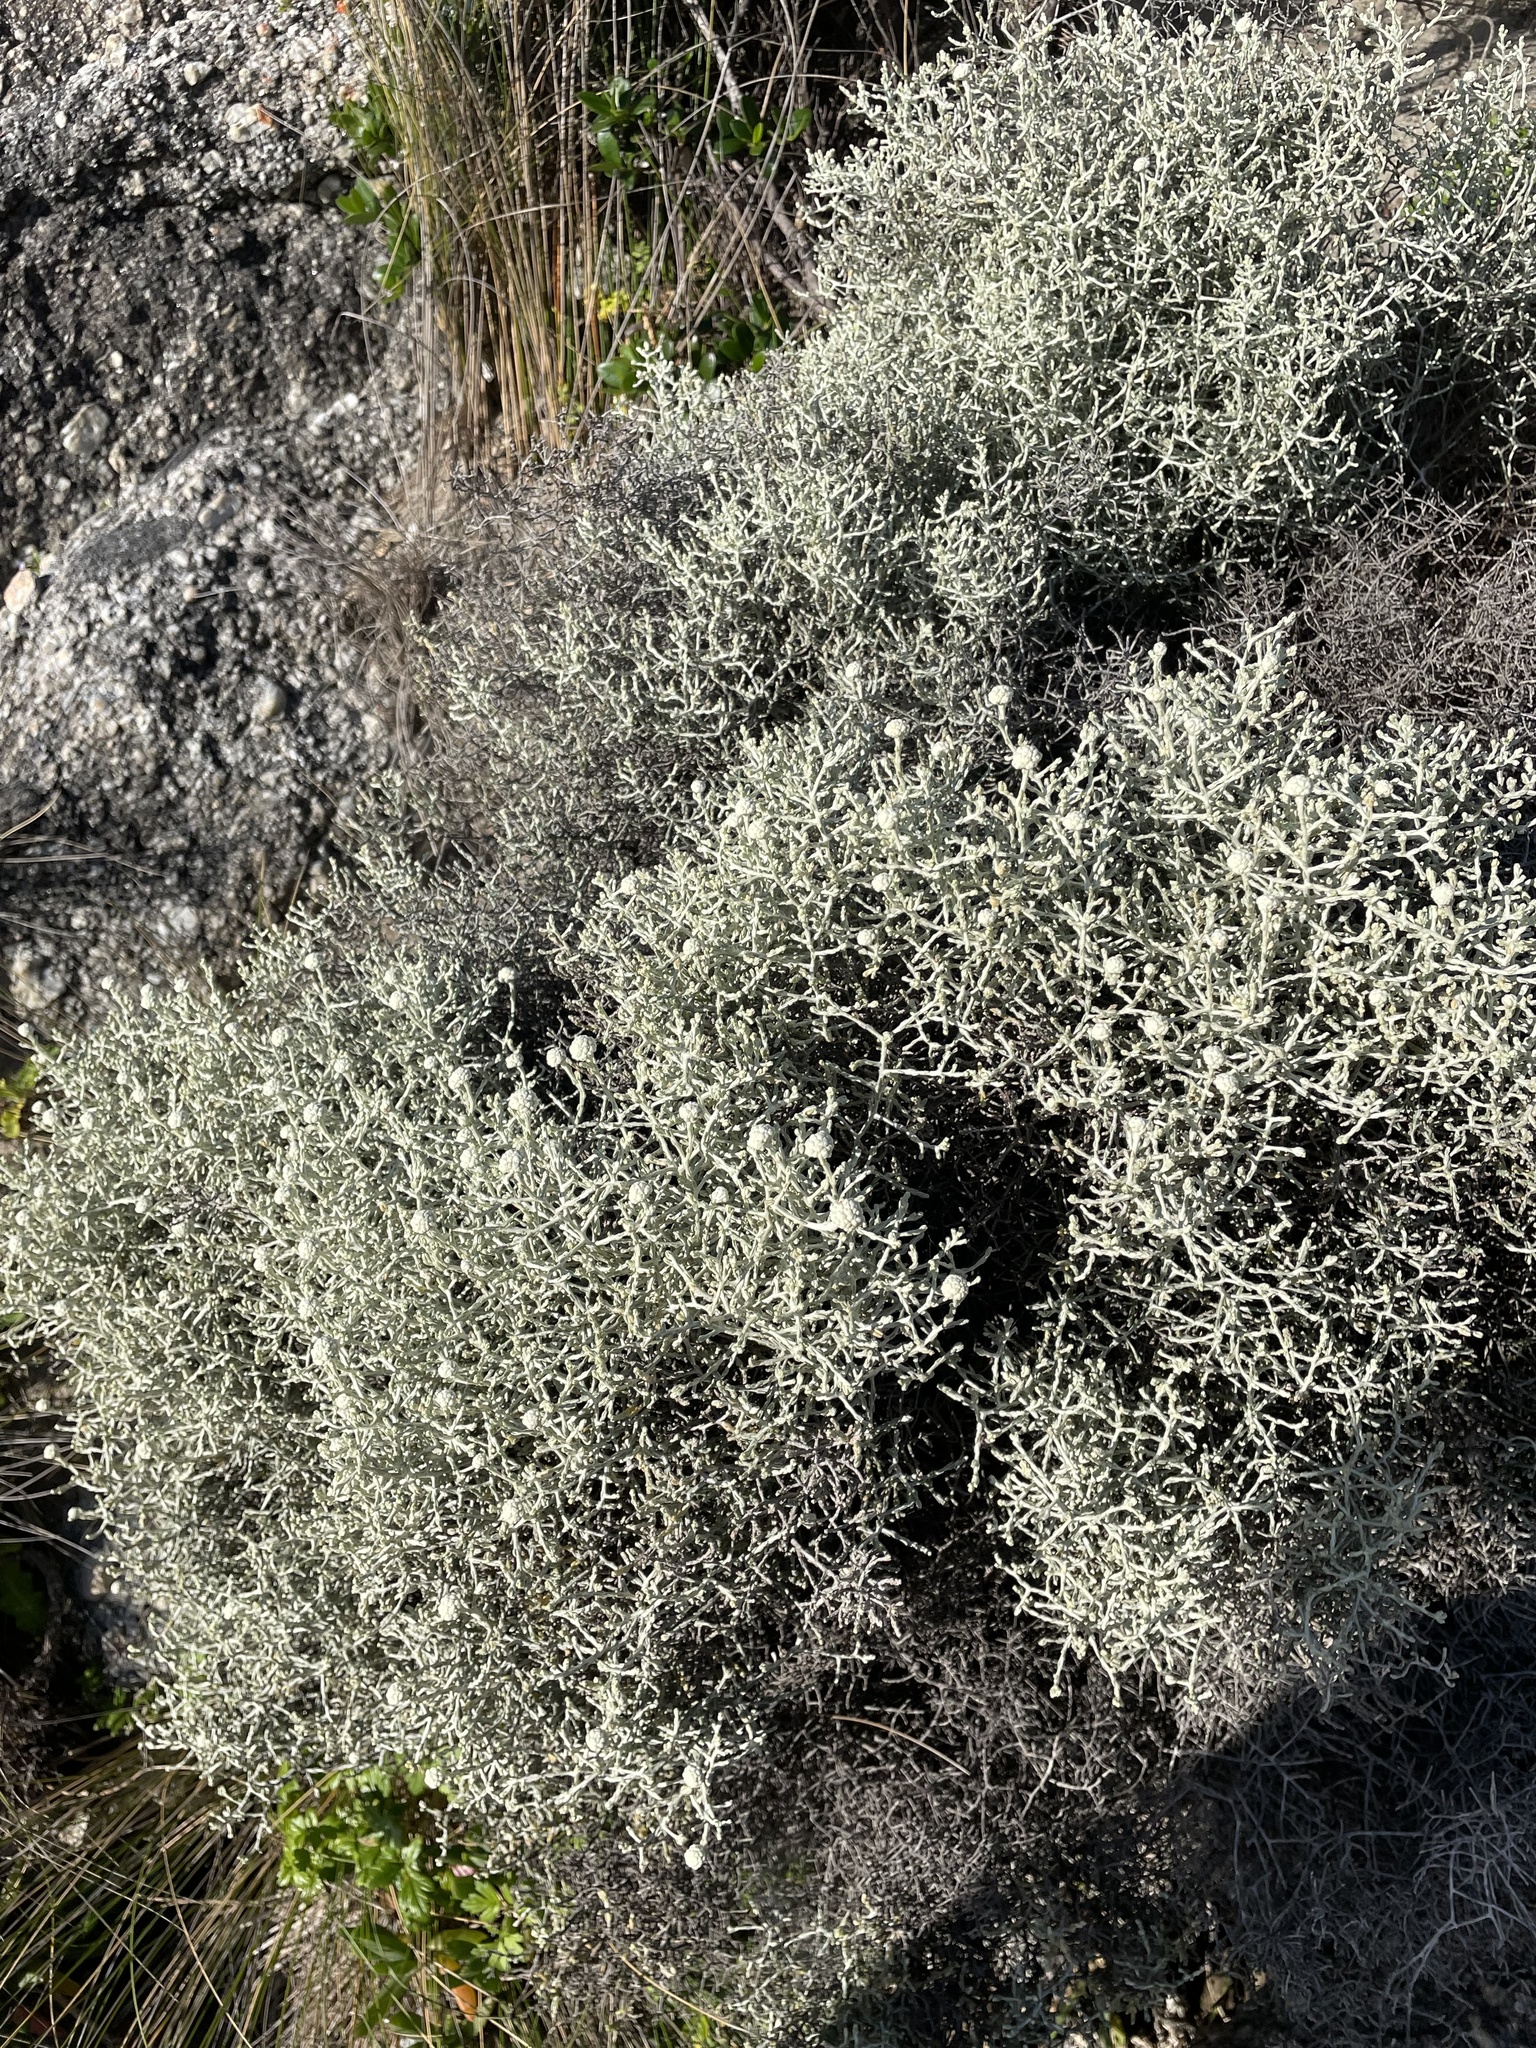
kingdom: Plantae
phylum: Tracheophyta
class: Magnoliopsida
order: Asterales
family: Asteraceae
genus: Calocephalus
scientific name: Calocephalus brownii
